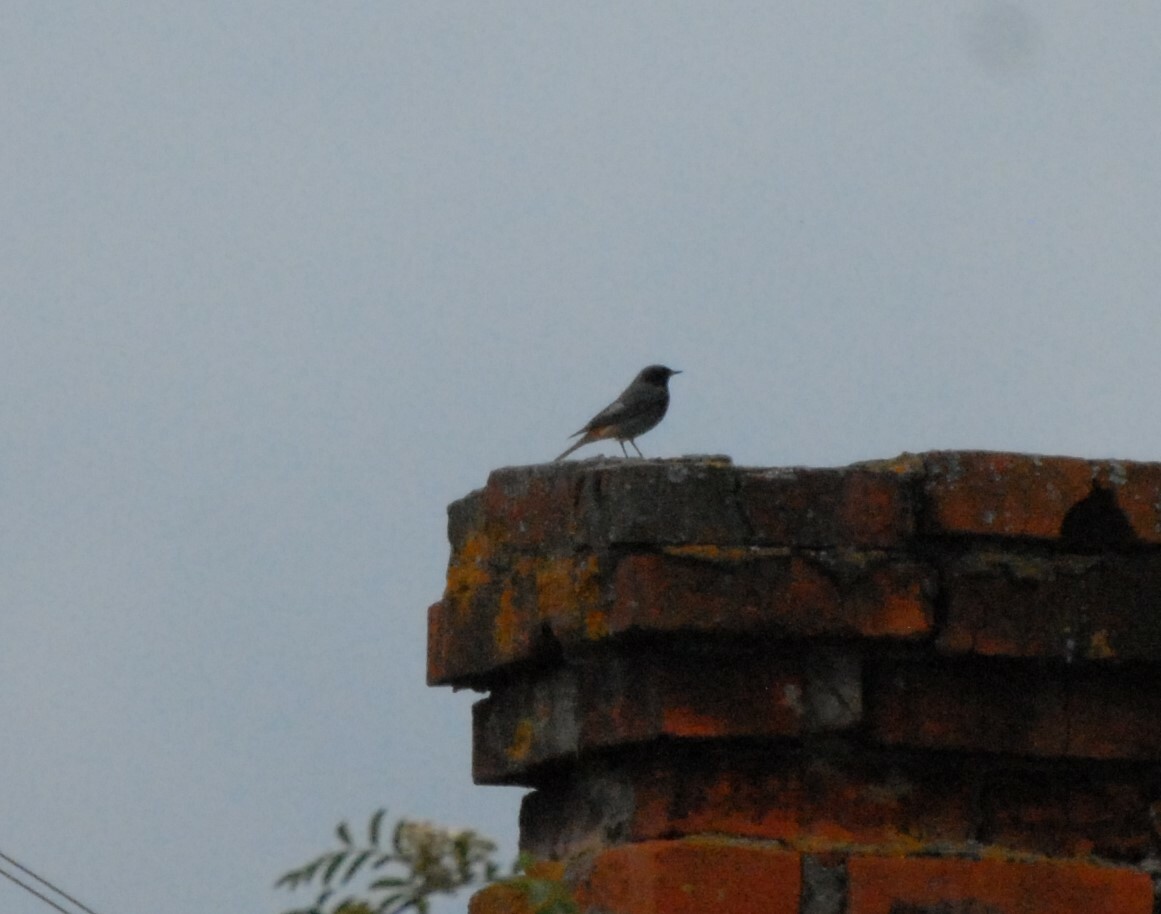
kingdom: Animalia
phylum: Chordata
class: Aves
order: Passeriformes
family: Muscicapidae
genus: Phoenicurus
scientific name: Phoenicurus ochruros
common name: Black redstart
